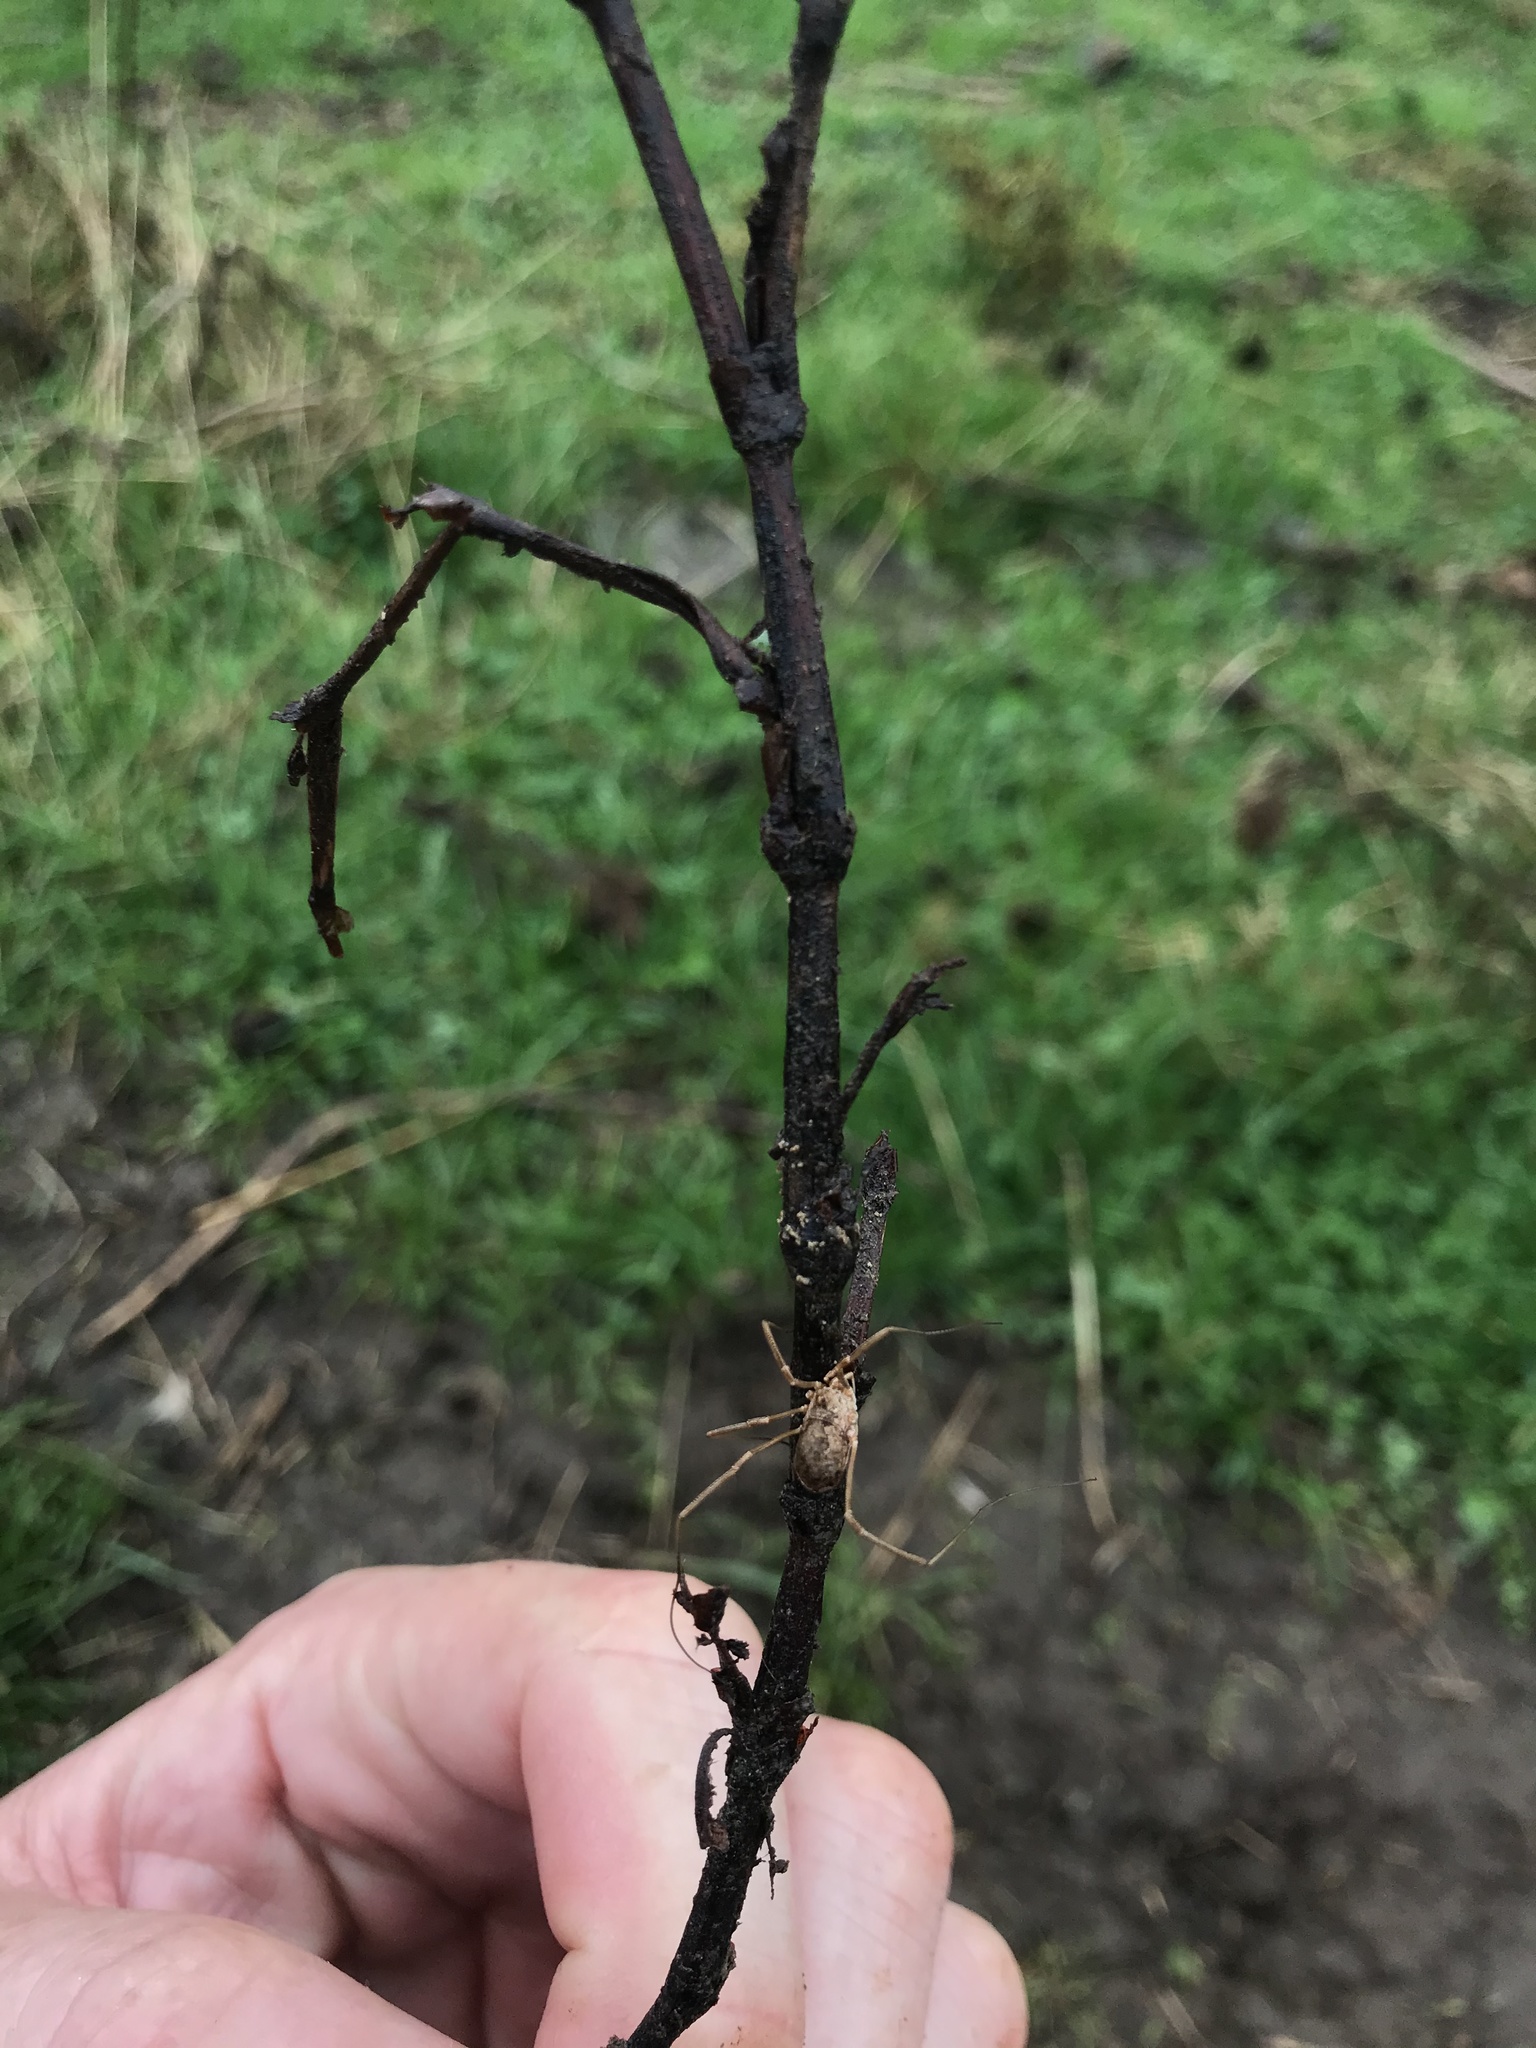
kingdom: Animalia
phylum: Arthropoda
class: Arachnida
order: Opiliones
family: Phalangiidae
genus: Phalangium
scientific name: Phalangium opilio
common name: Daddy longleg
